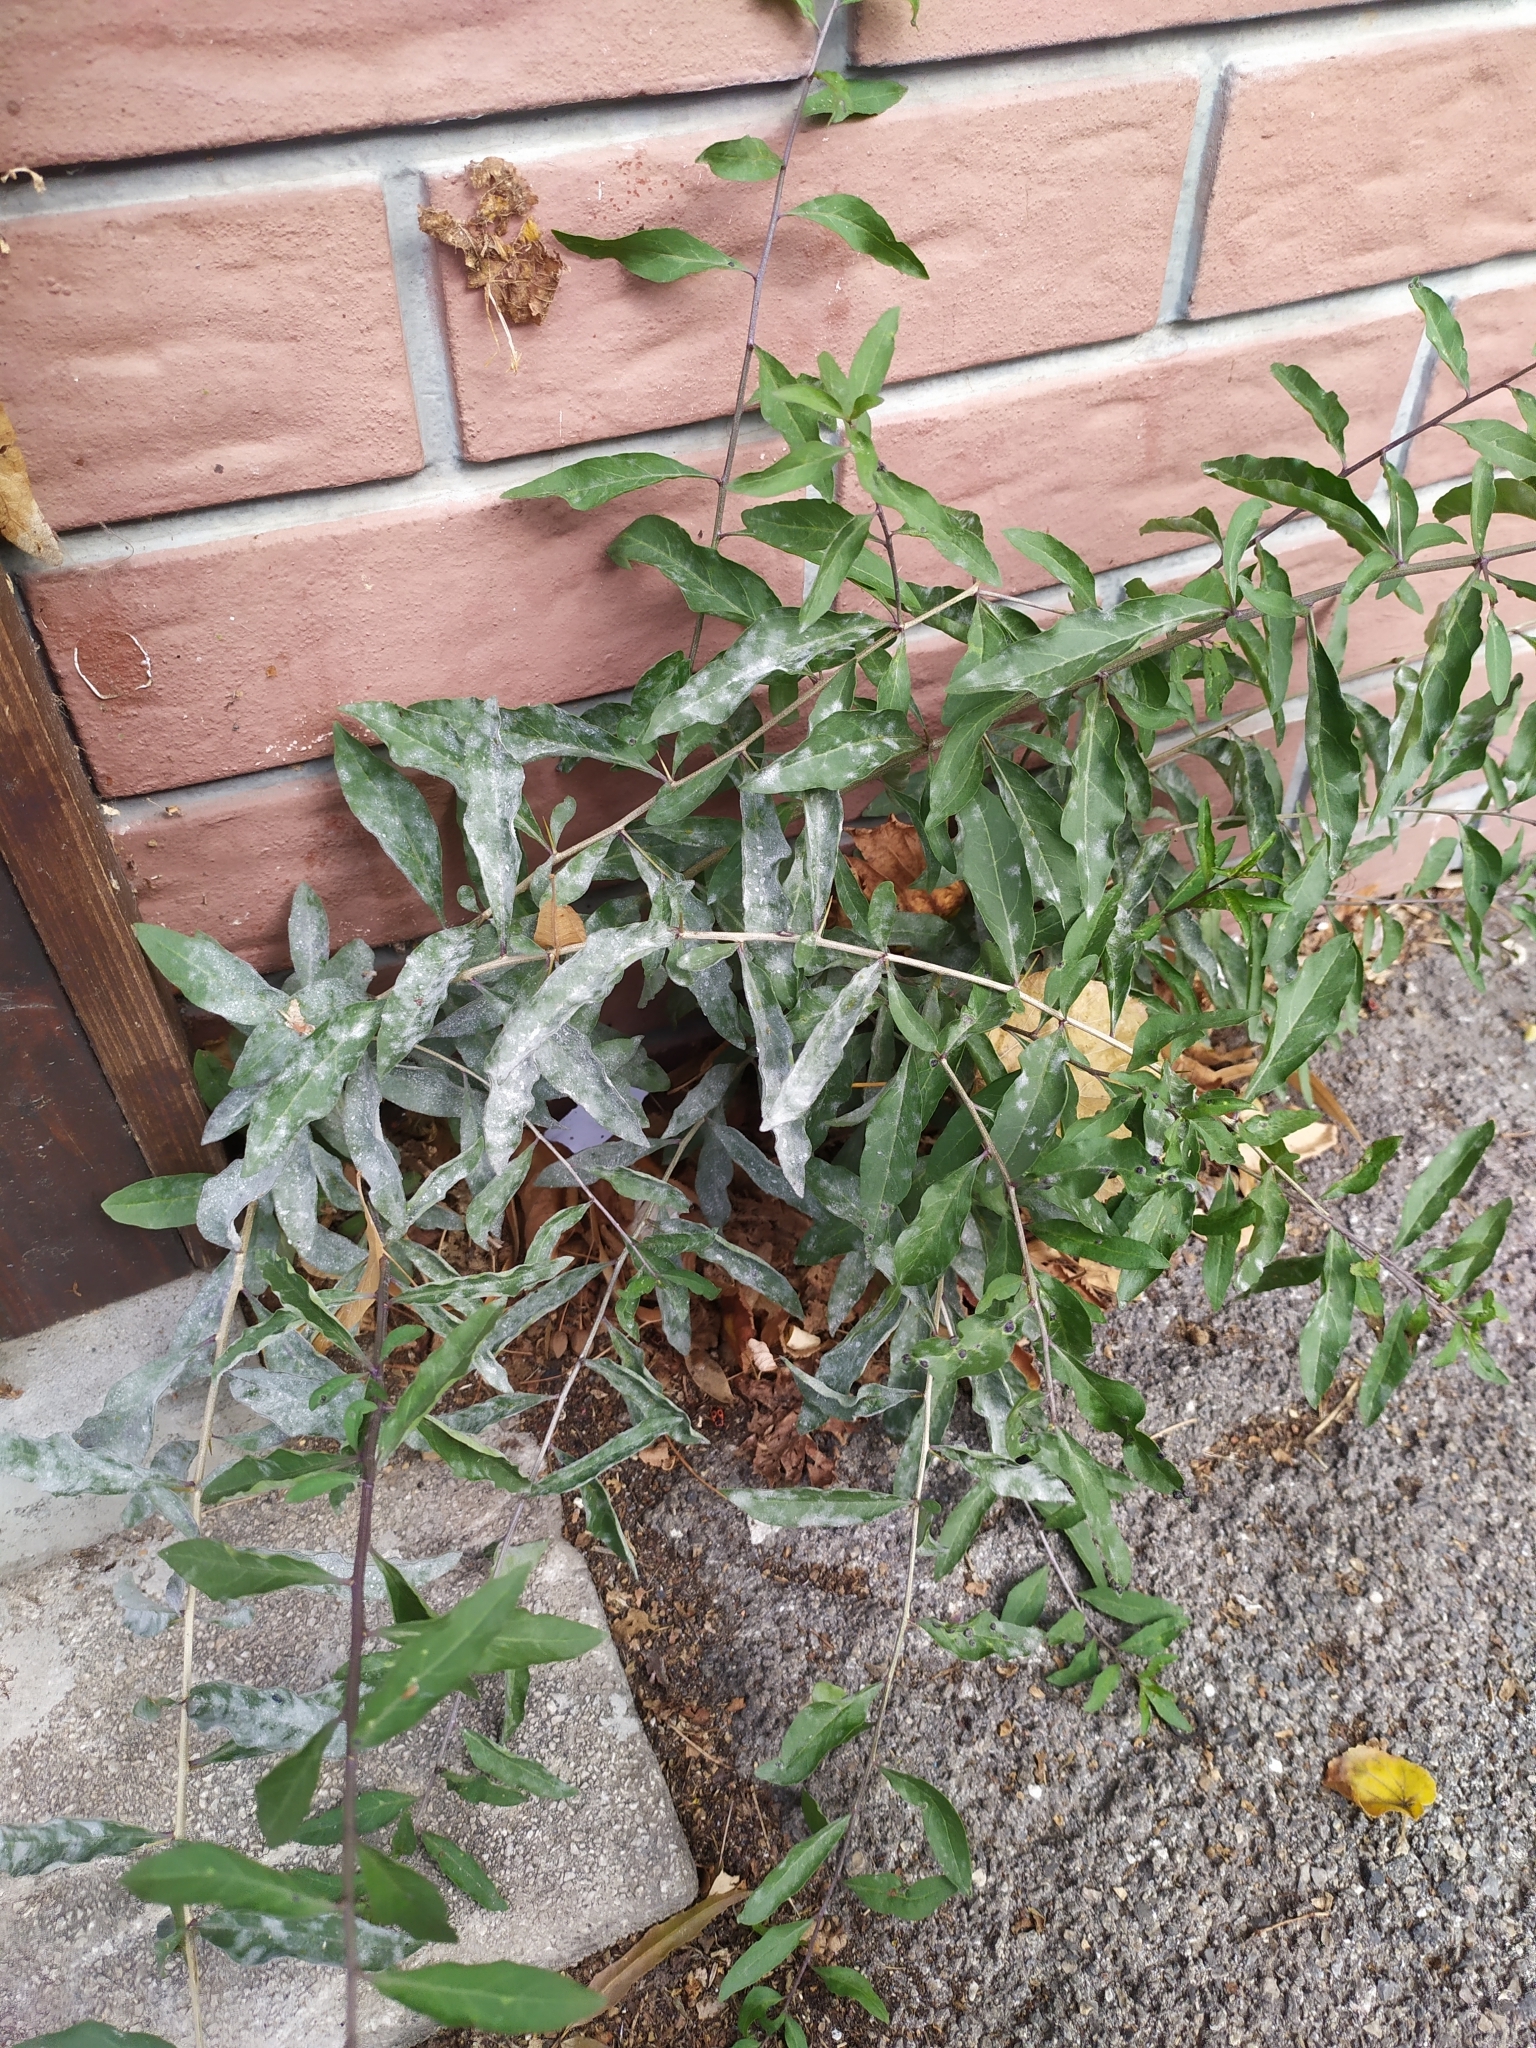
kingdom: Plantae
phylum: Tracheophyta
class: Magnoliopsida
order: Solanales
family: Solanaceae
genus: Lycium
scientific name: Lycium barbarum
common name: Duke of argyll's teaplant
